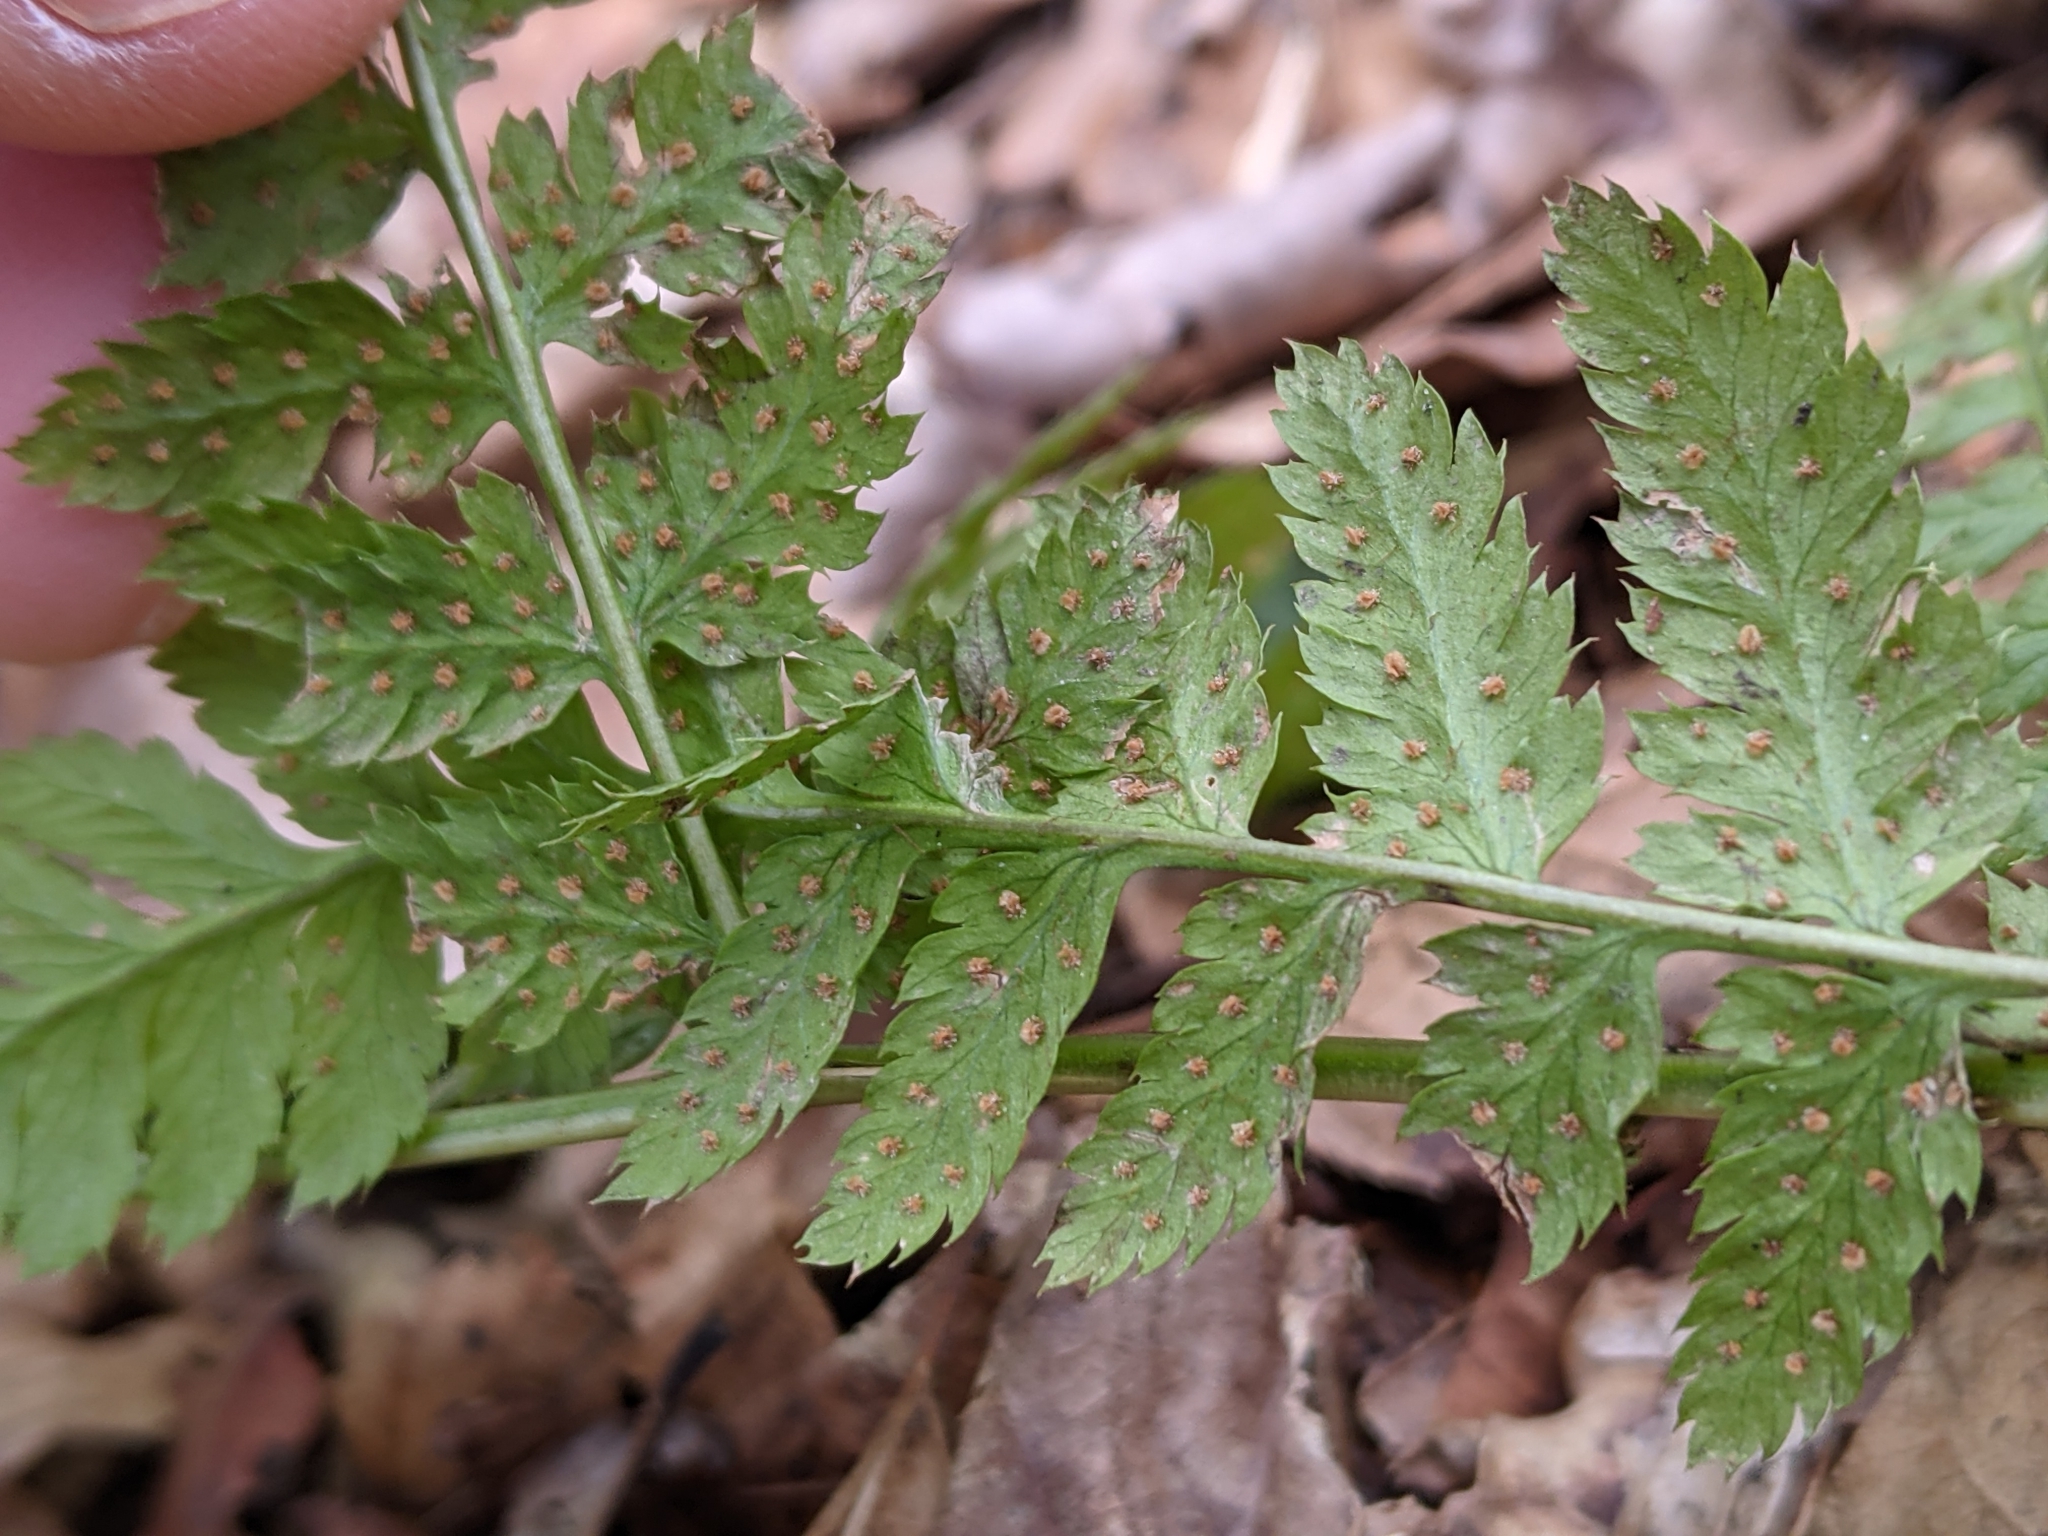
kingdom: Plantae
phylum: Tracheophyta
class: Polypodiopsida
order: Polypodiales
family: Dryopteridaceae
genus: Dryopteris
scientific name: Dryopteris carthusiana
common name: Narrow buckler-fern
